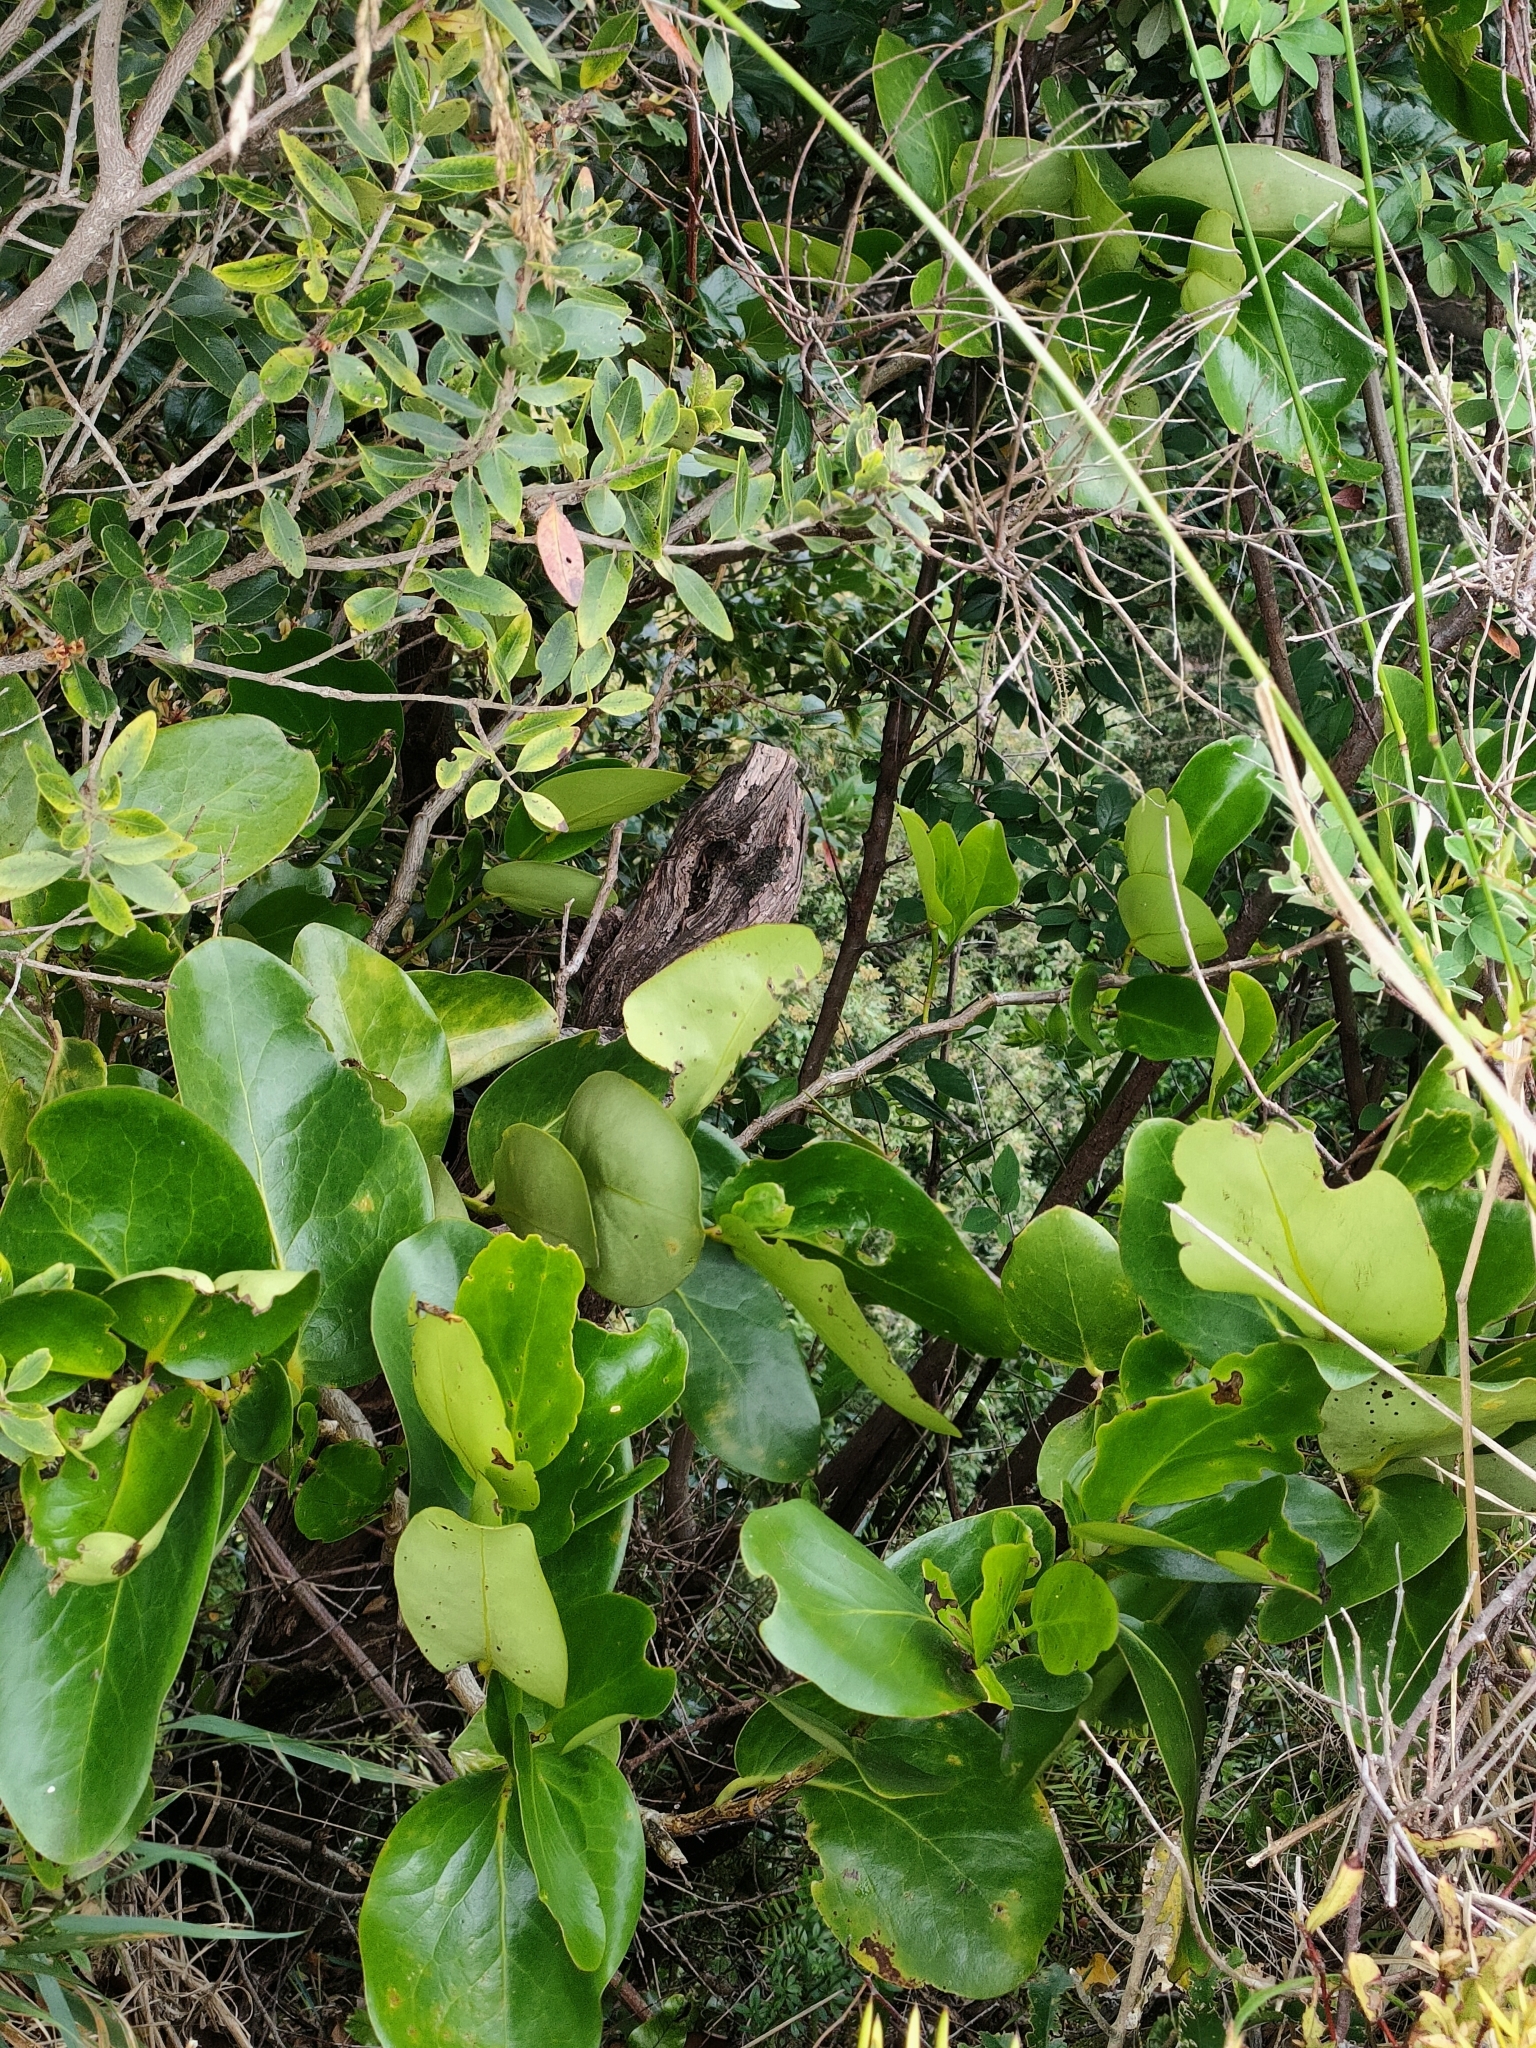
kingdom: Plantae
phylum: Tracheophyta
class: Magnoliopsida
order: Apiales
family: Griseliniaceae
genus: Griselinia
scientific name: Griselinia lucida
